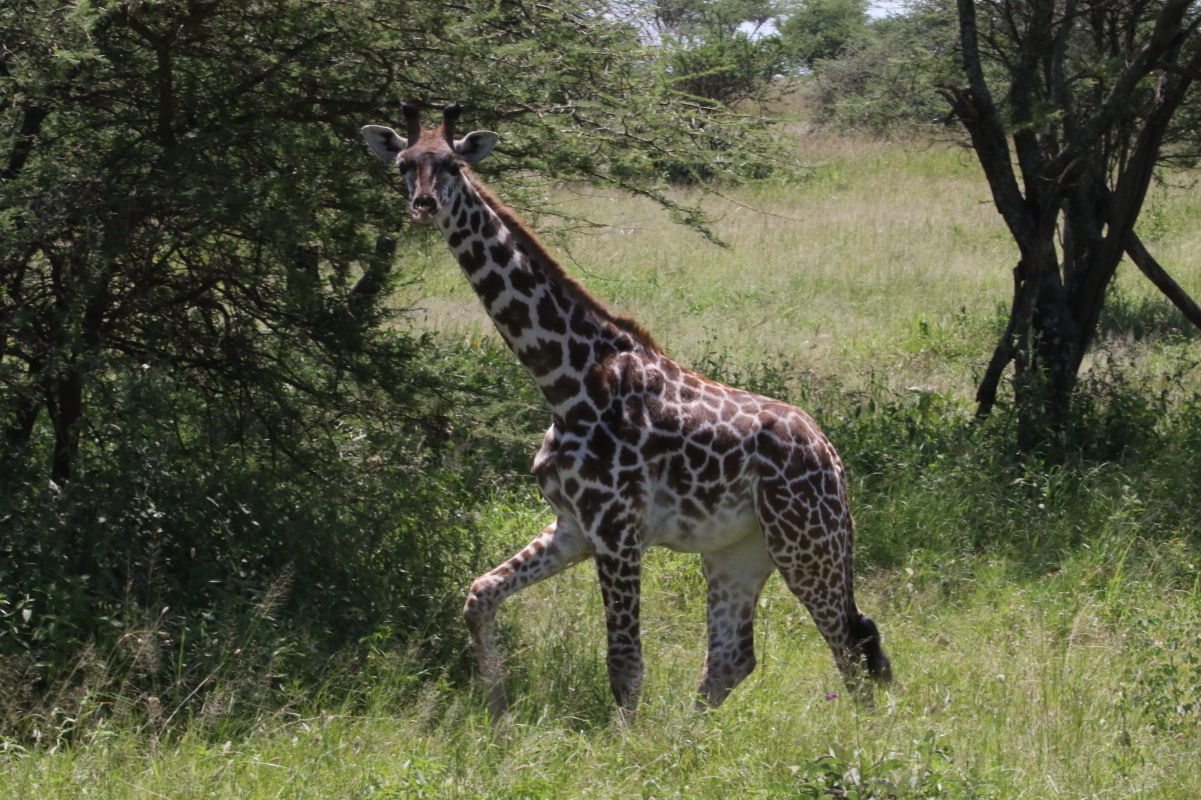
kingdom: Animalia
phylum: Chordata
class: Mammalia
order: Artiodactyla
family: Giraffidae
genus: Giraffa
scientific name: Giraffa tippelskirchi
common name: Masai giraffe
